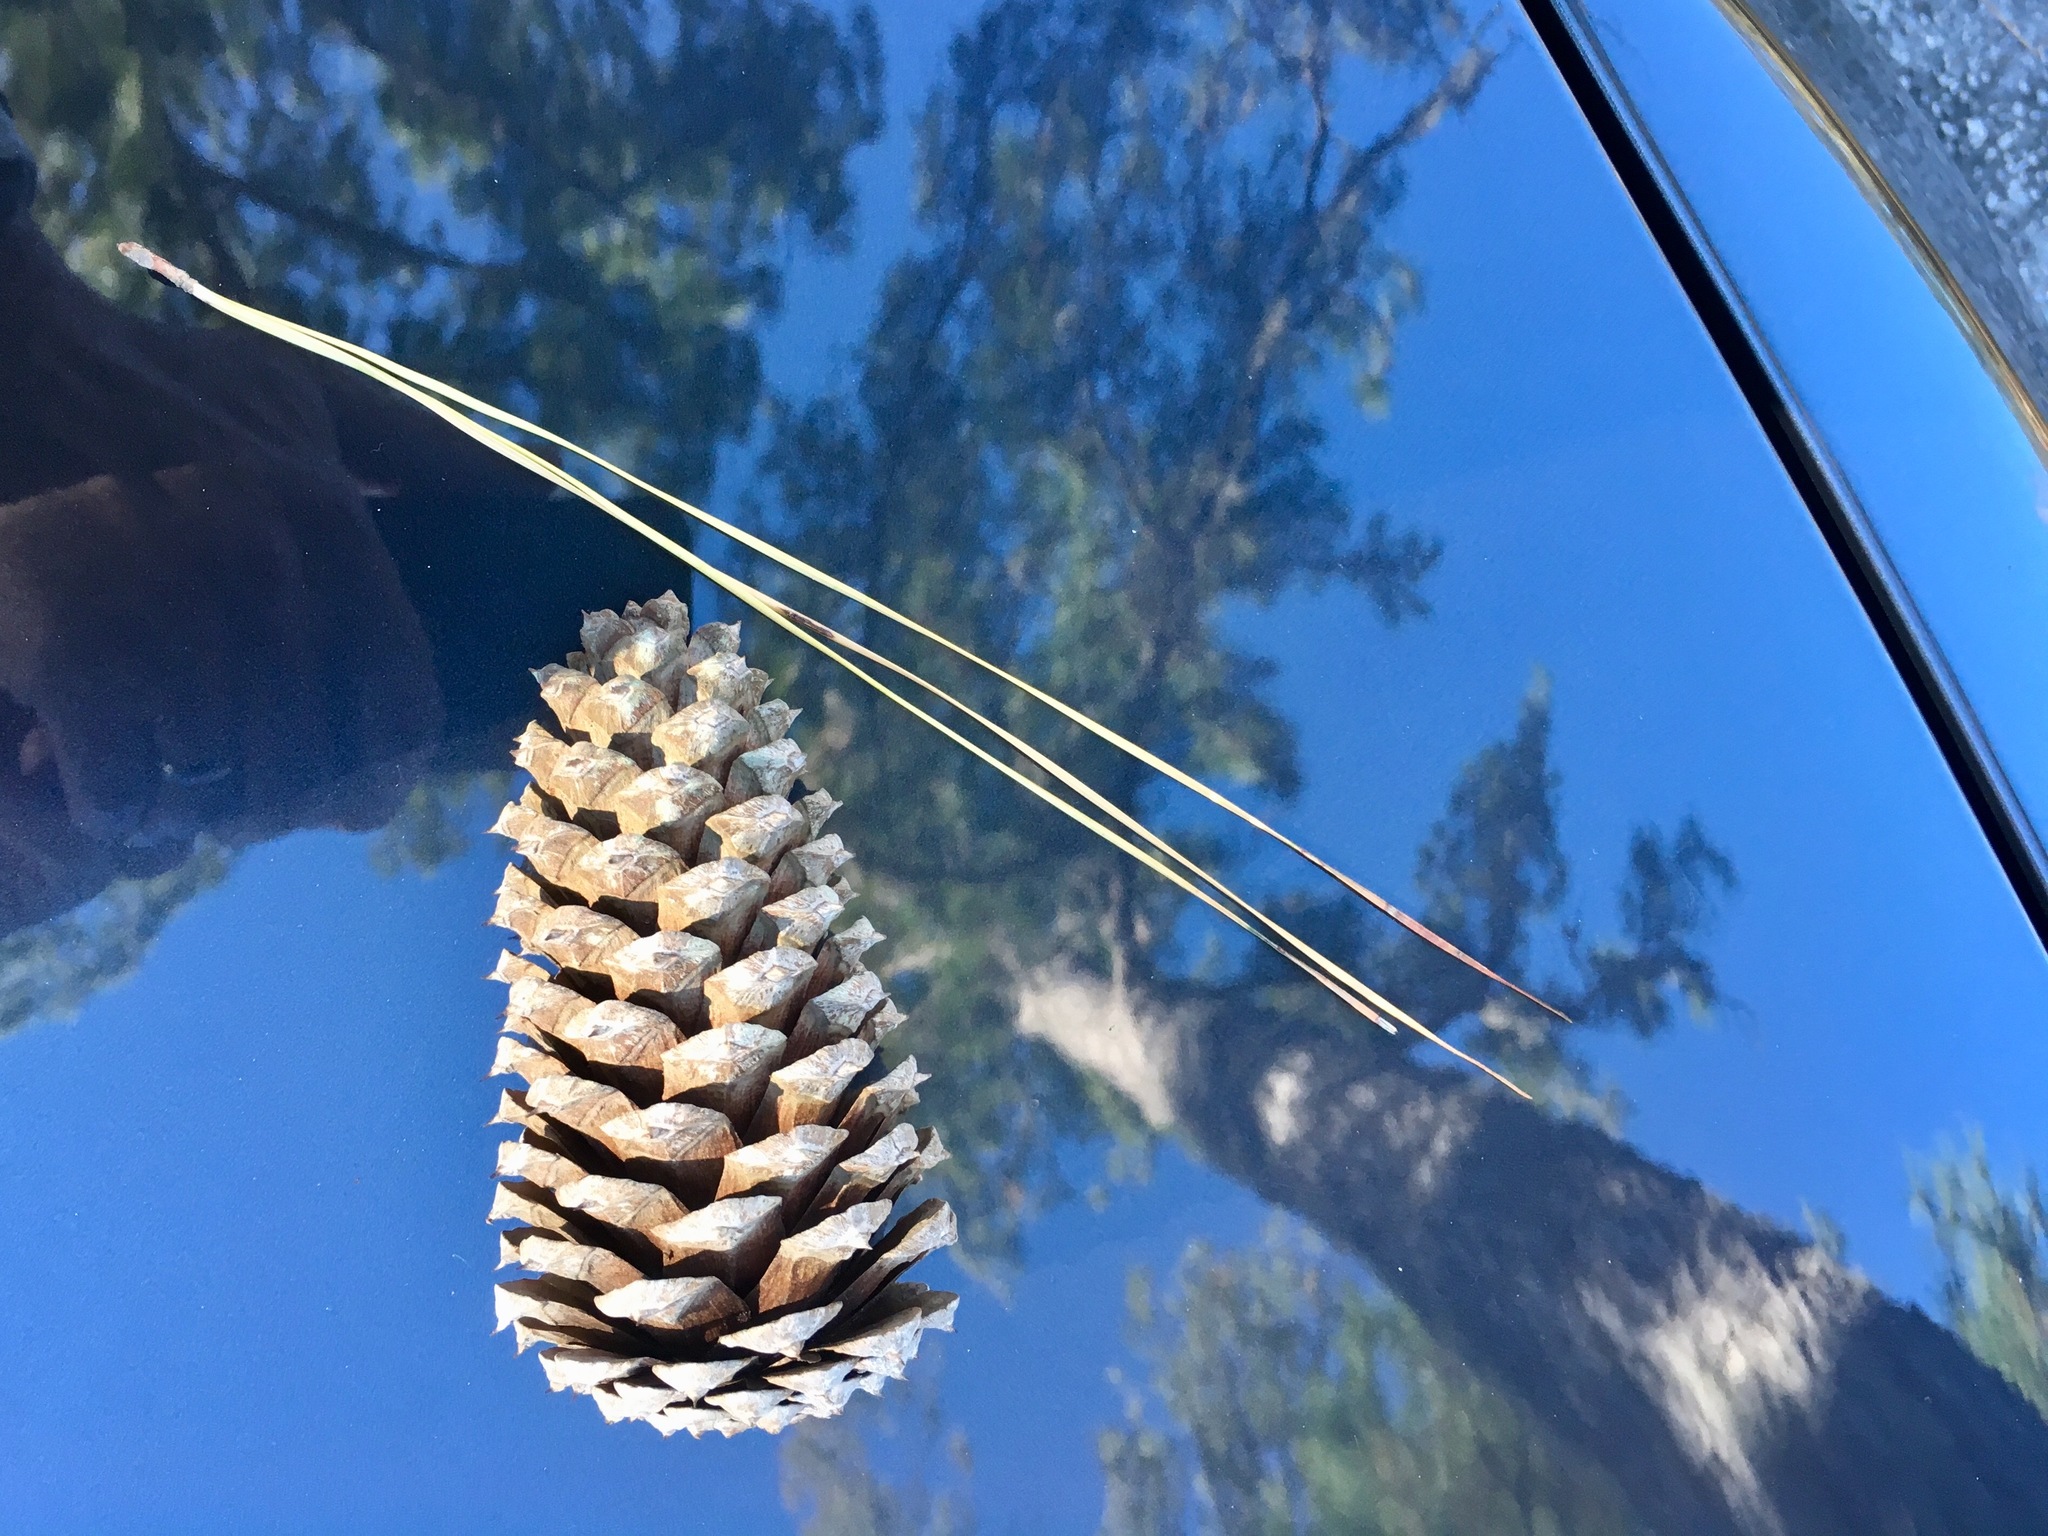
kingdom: Plantae
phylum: Tracheophyta
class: Pinopsida
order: Pinales
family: Pinaceae
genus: Pinus
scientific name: Pinus taeda
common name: Loblolly pine
